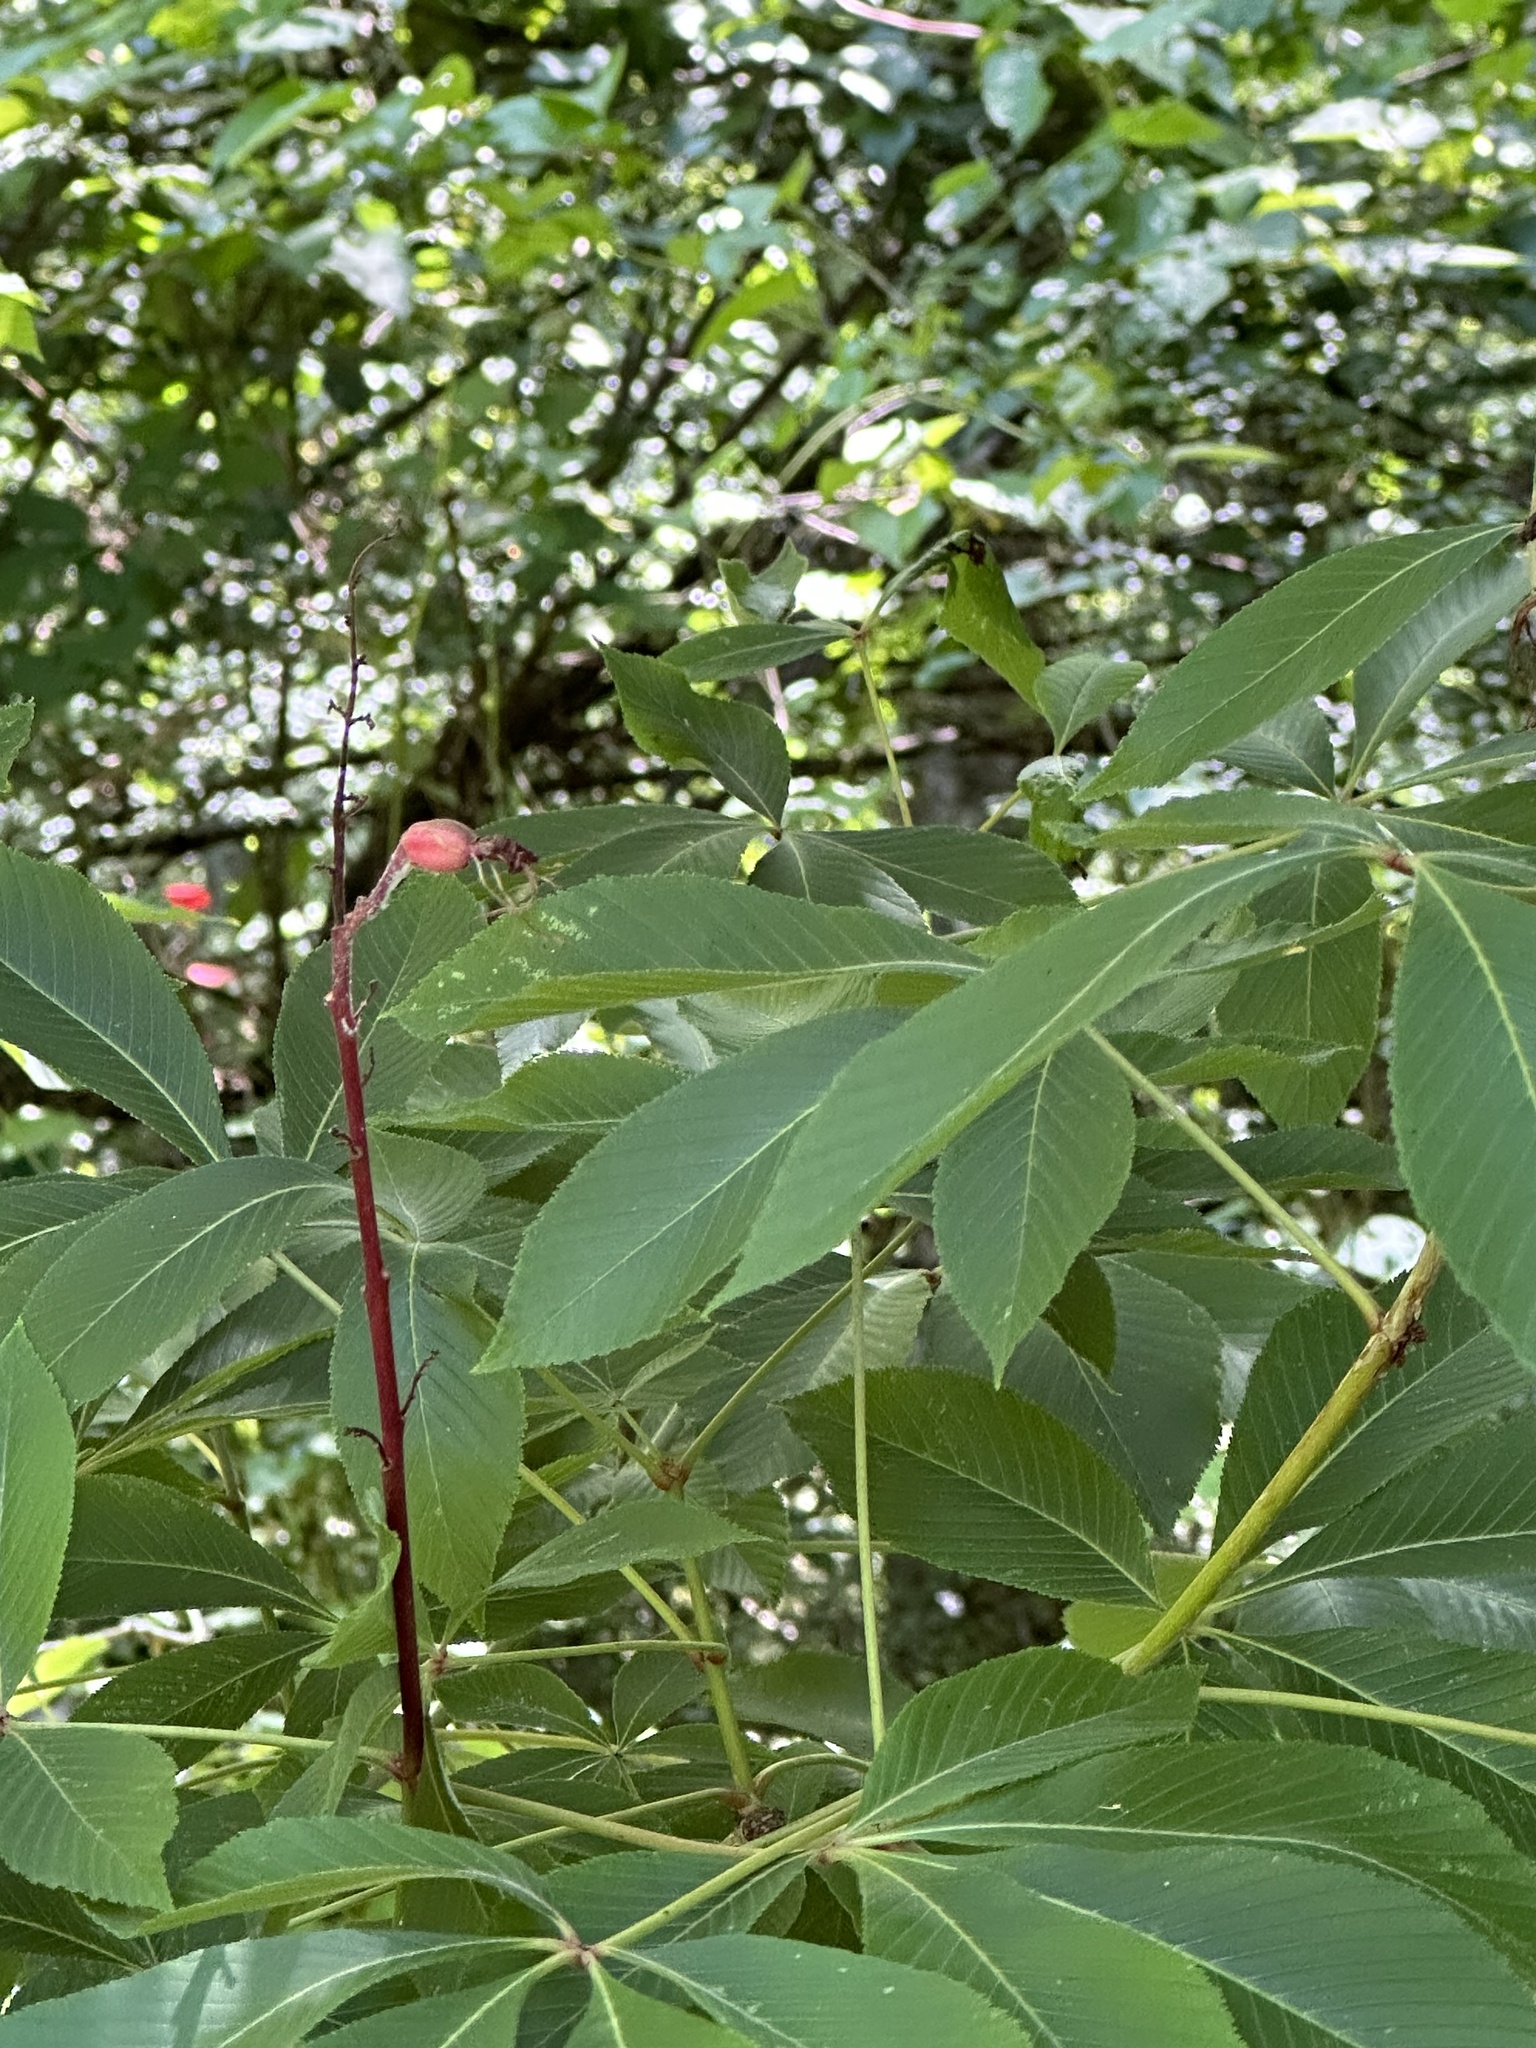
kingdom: Plantae
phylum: Tracheophyta
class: Magnoliopsida
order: Sapindales
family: Sapindaceae
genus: Aesculus
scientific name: Aesculus pavia
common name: Red buckeye
